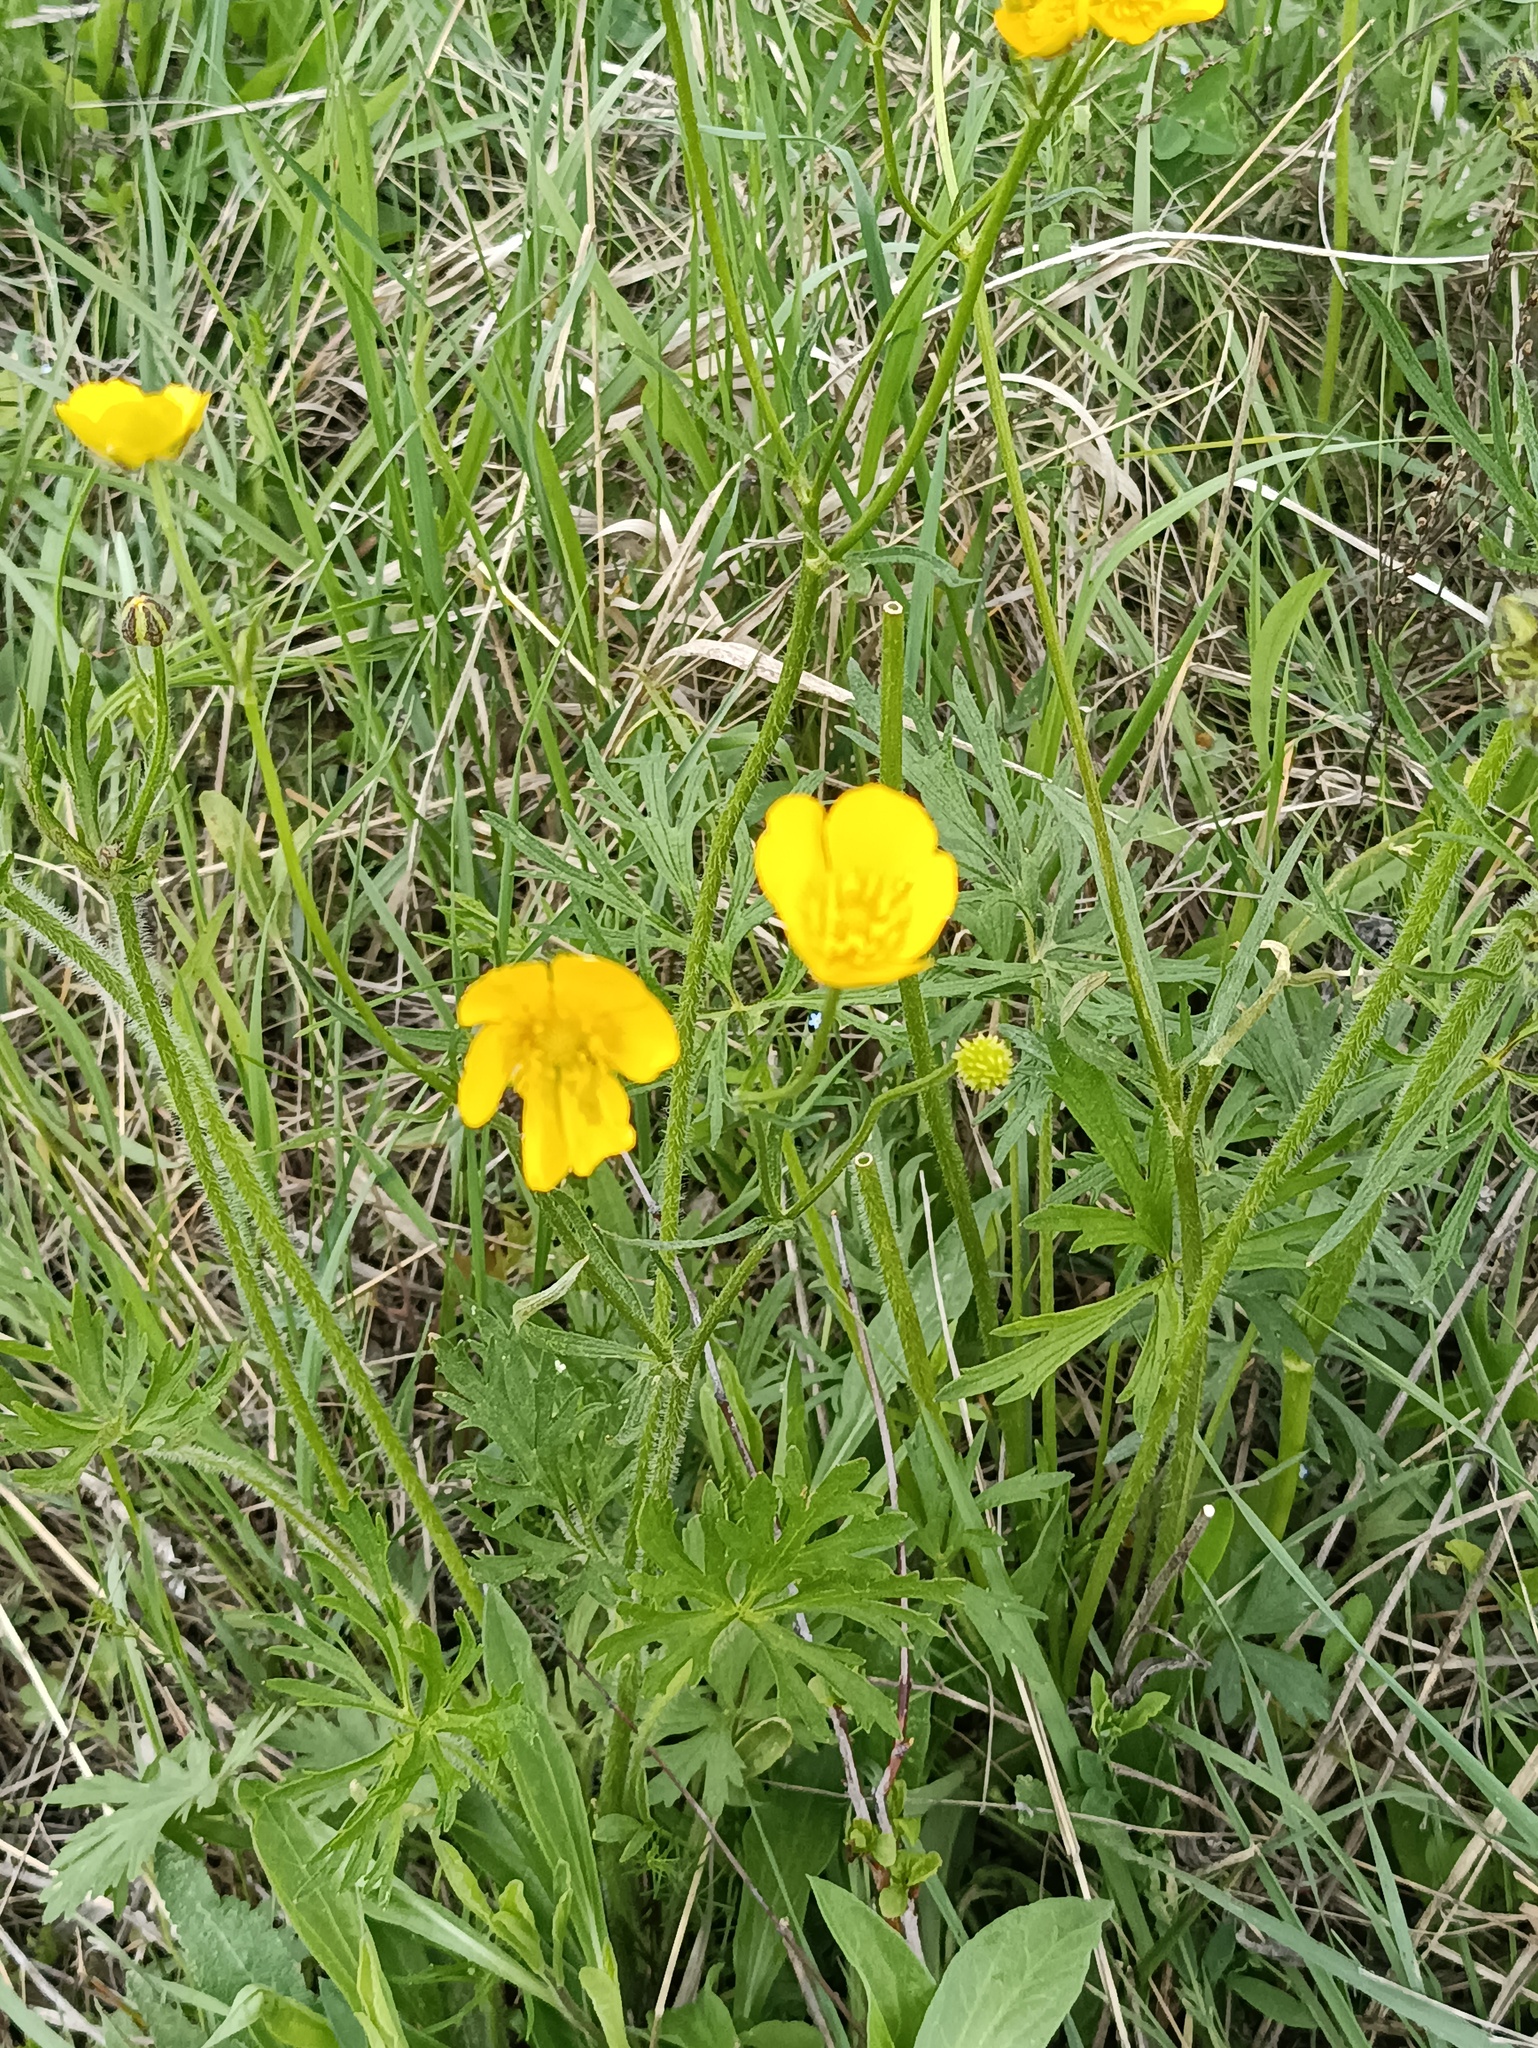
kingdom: Plantae
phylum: Tracheophyta
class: Magnoliopsida
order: Ranunculales
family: Ranunculaceae
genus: Ranunculus
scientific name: Ranunculus polyanthemos
